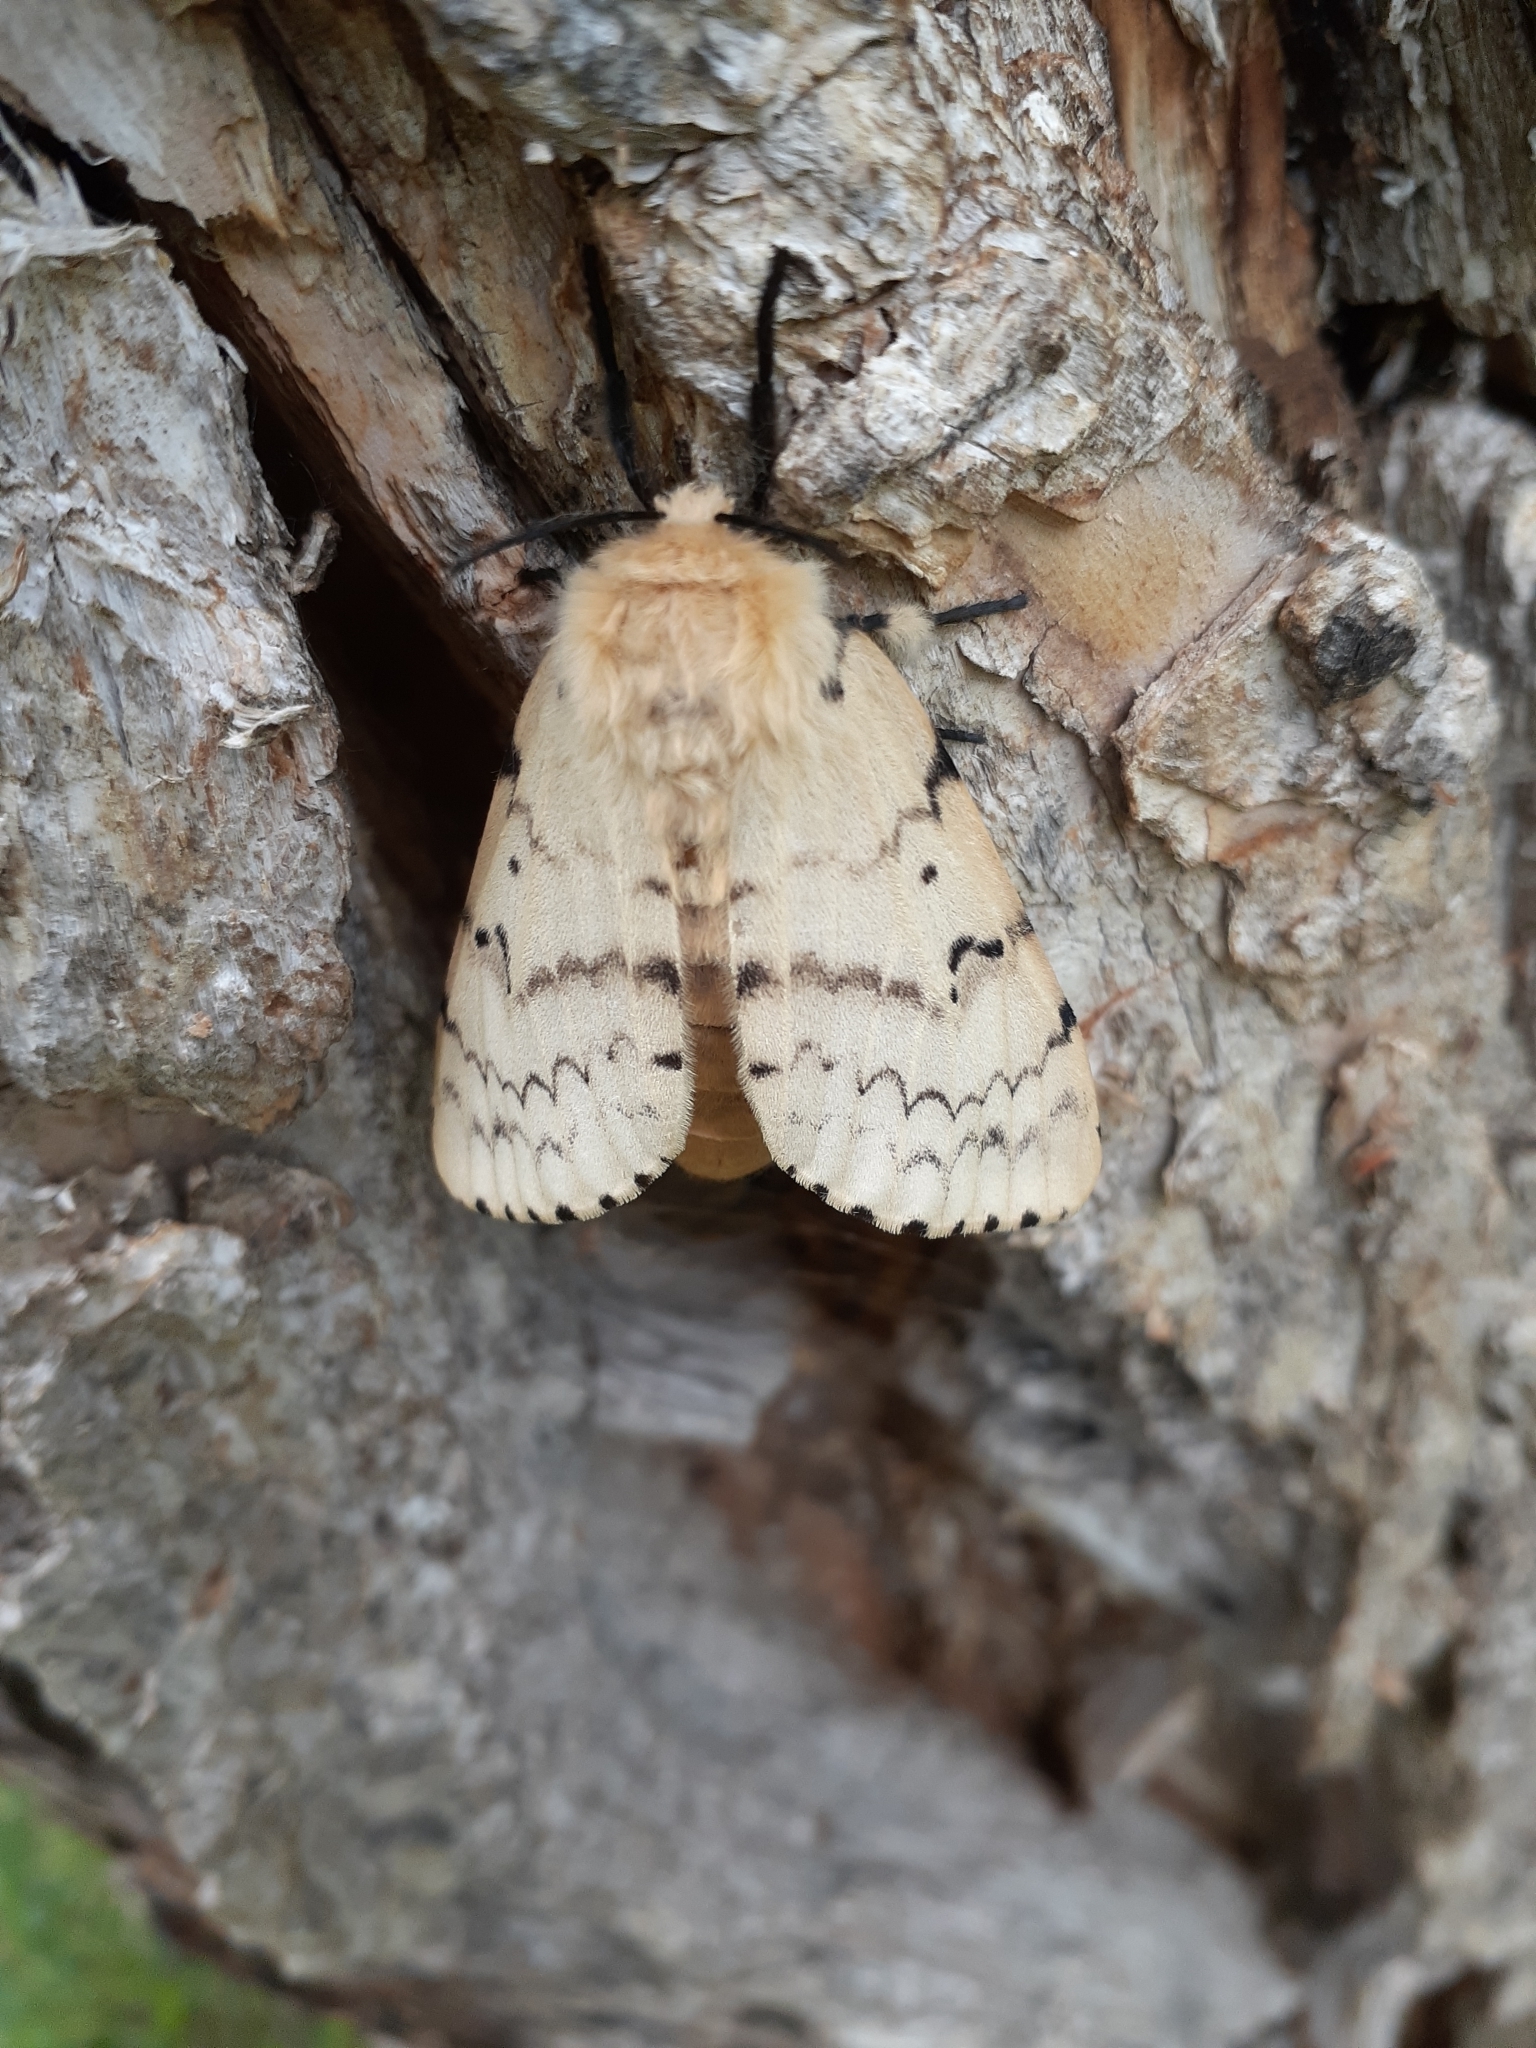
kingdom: Animalia
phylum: Arthropoda
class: Insecta
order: Lepidoptera
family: Erebidae
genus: Lymantria
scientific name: Lymantria dispar
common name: Gypsy moth
